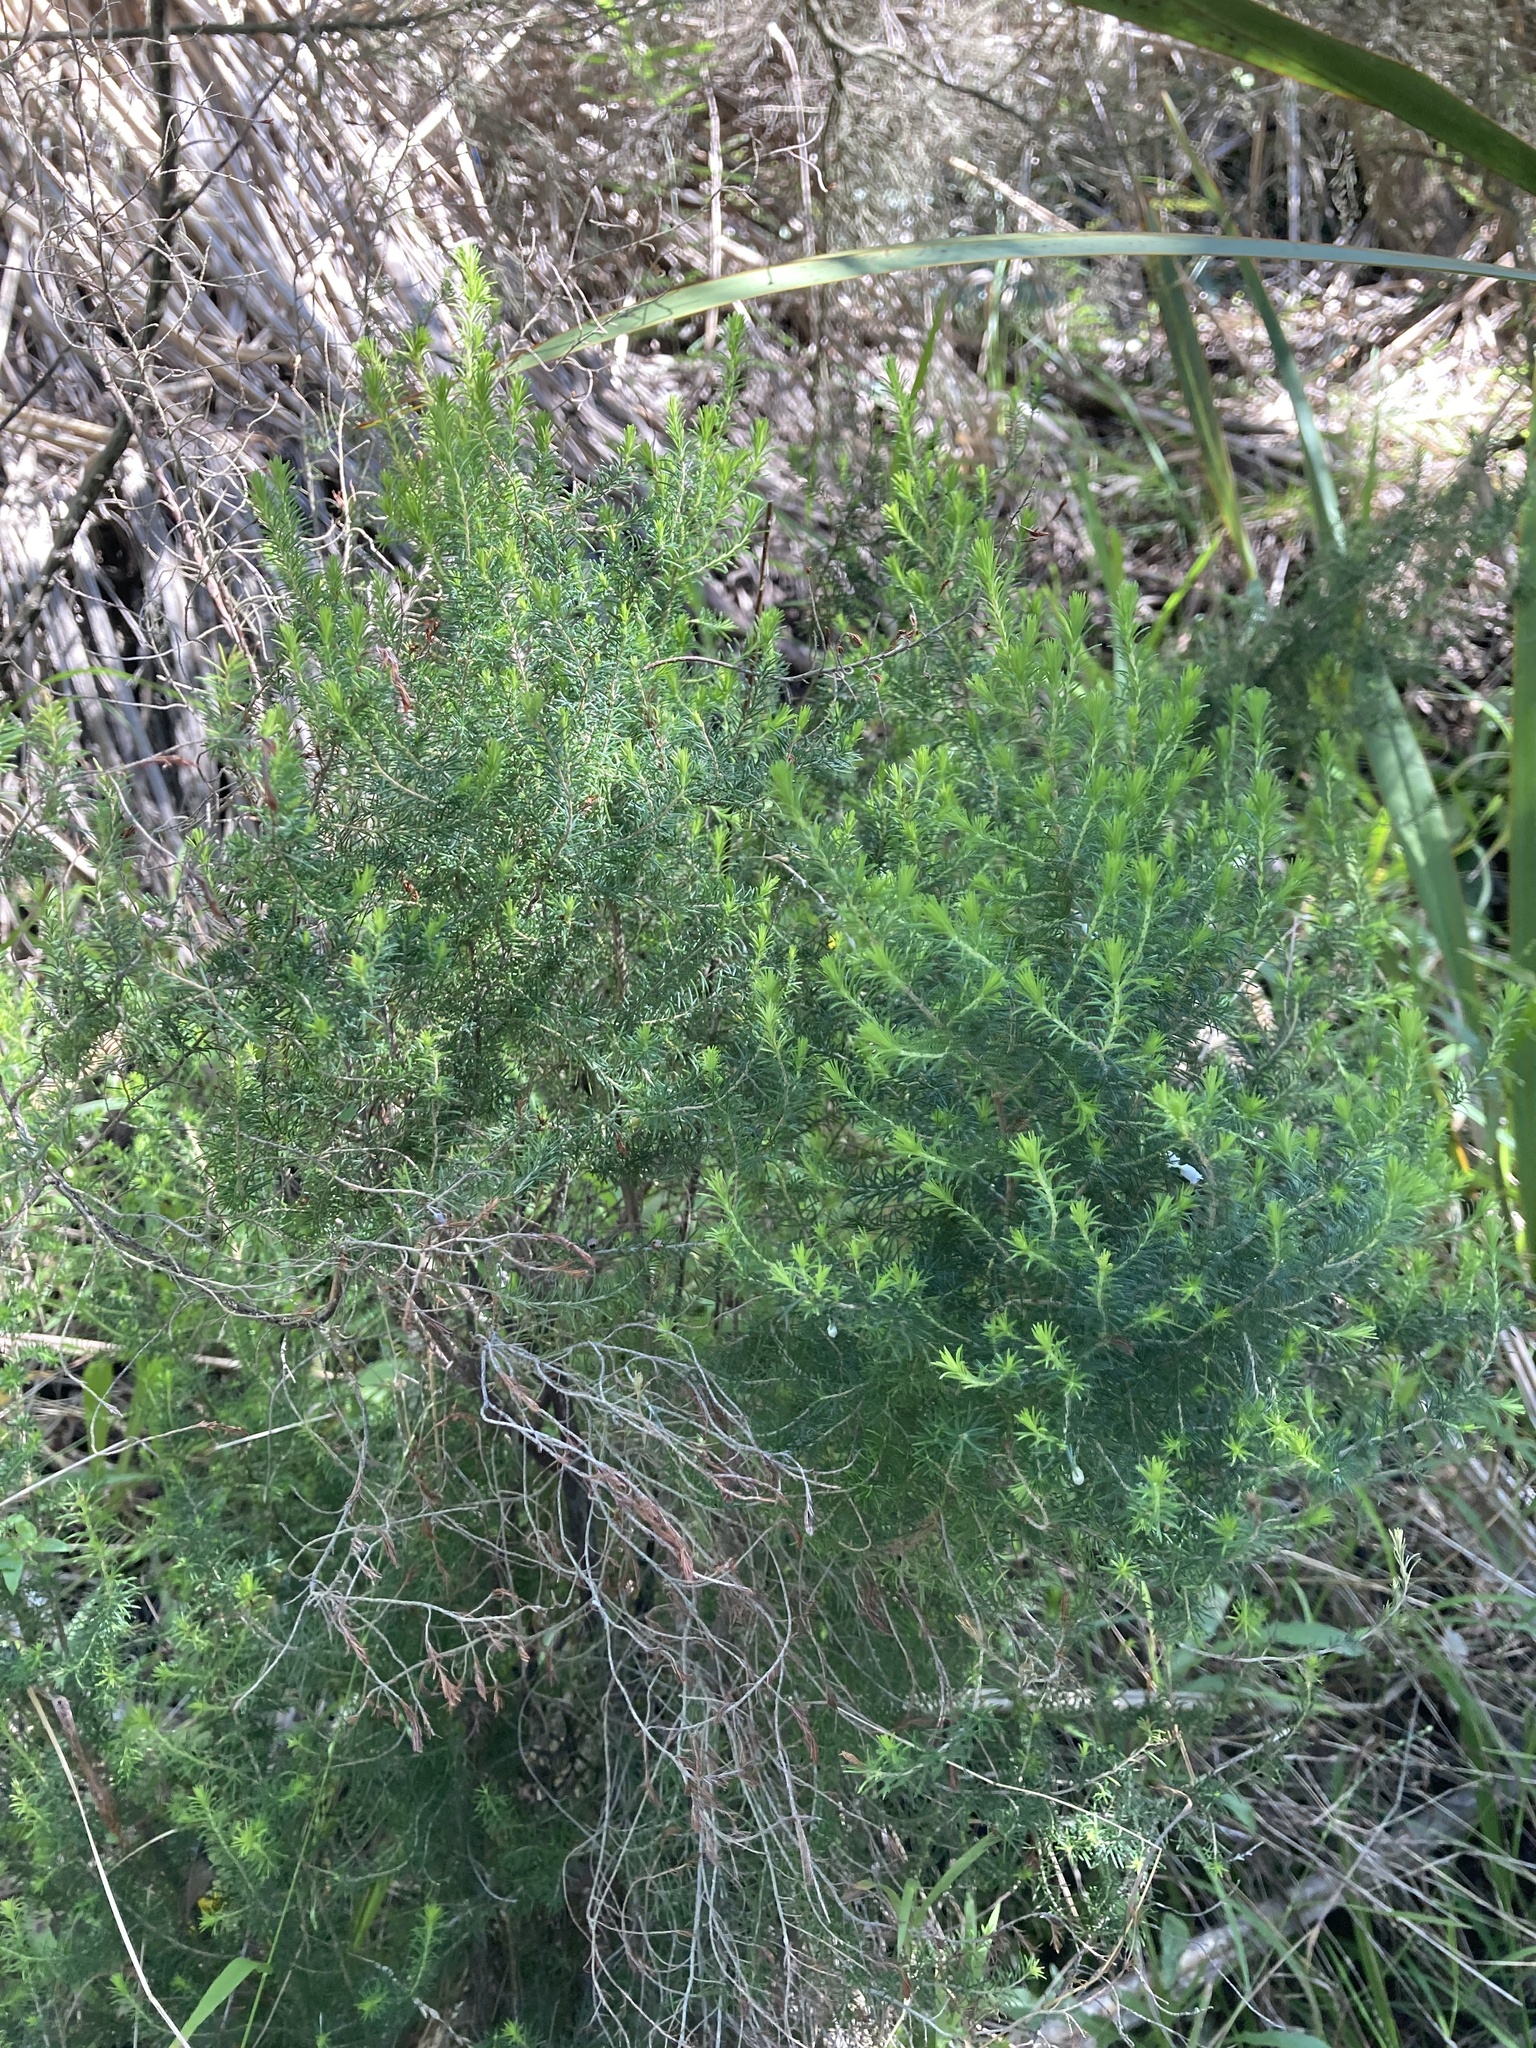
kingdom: Plantae
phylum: Tracheophyta
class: Magnoliopsida
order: Ericales
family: Ericaceae
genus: Erica
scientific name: Erica lusitanica
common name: Spanish heath
